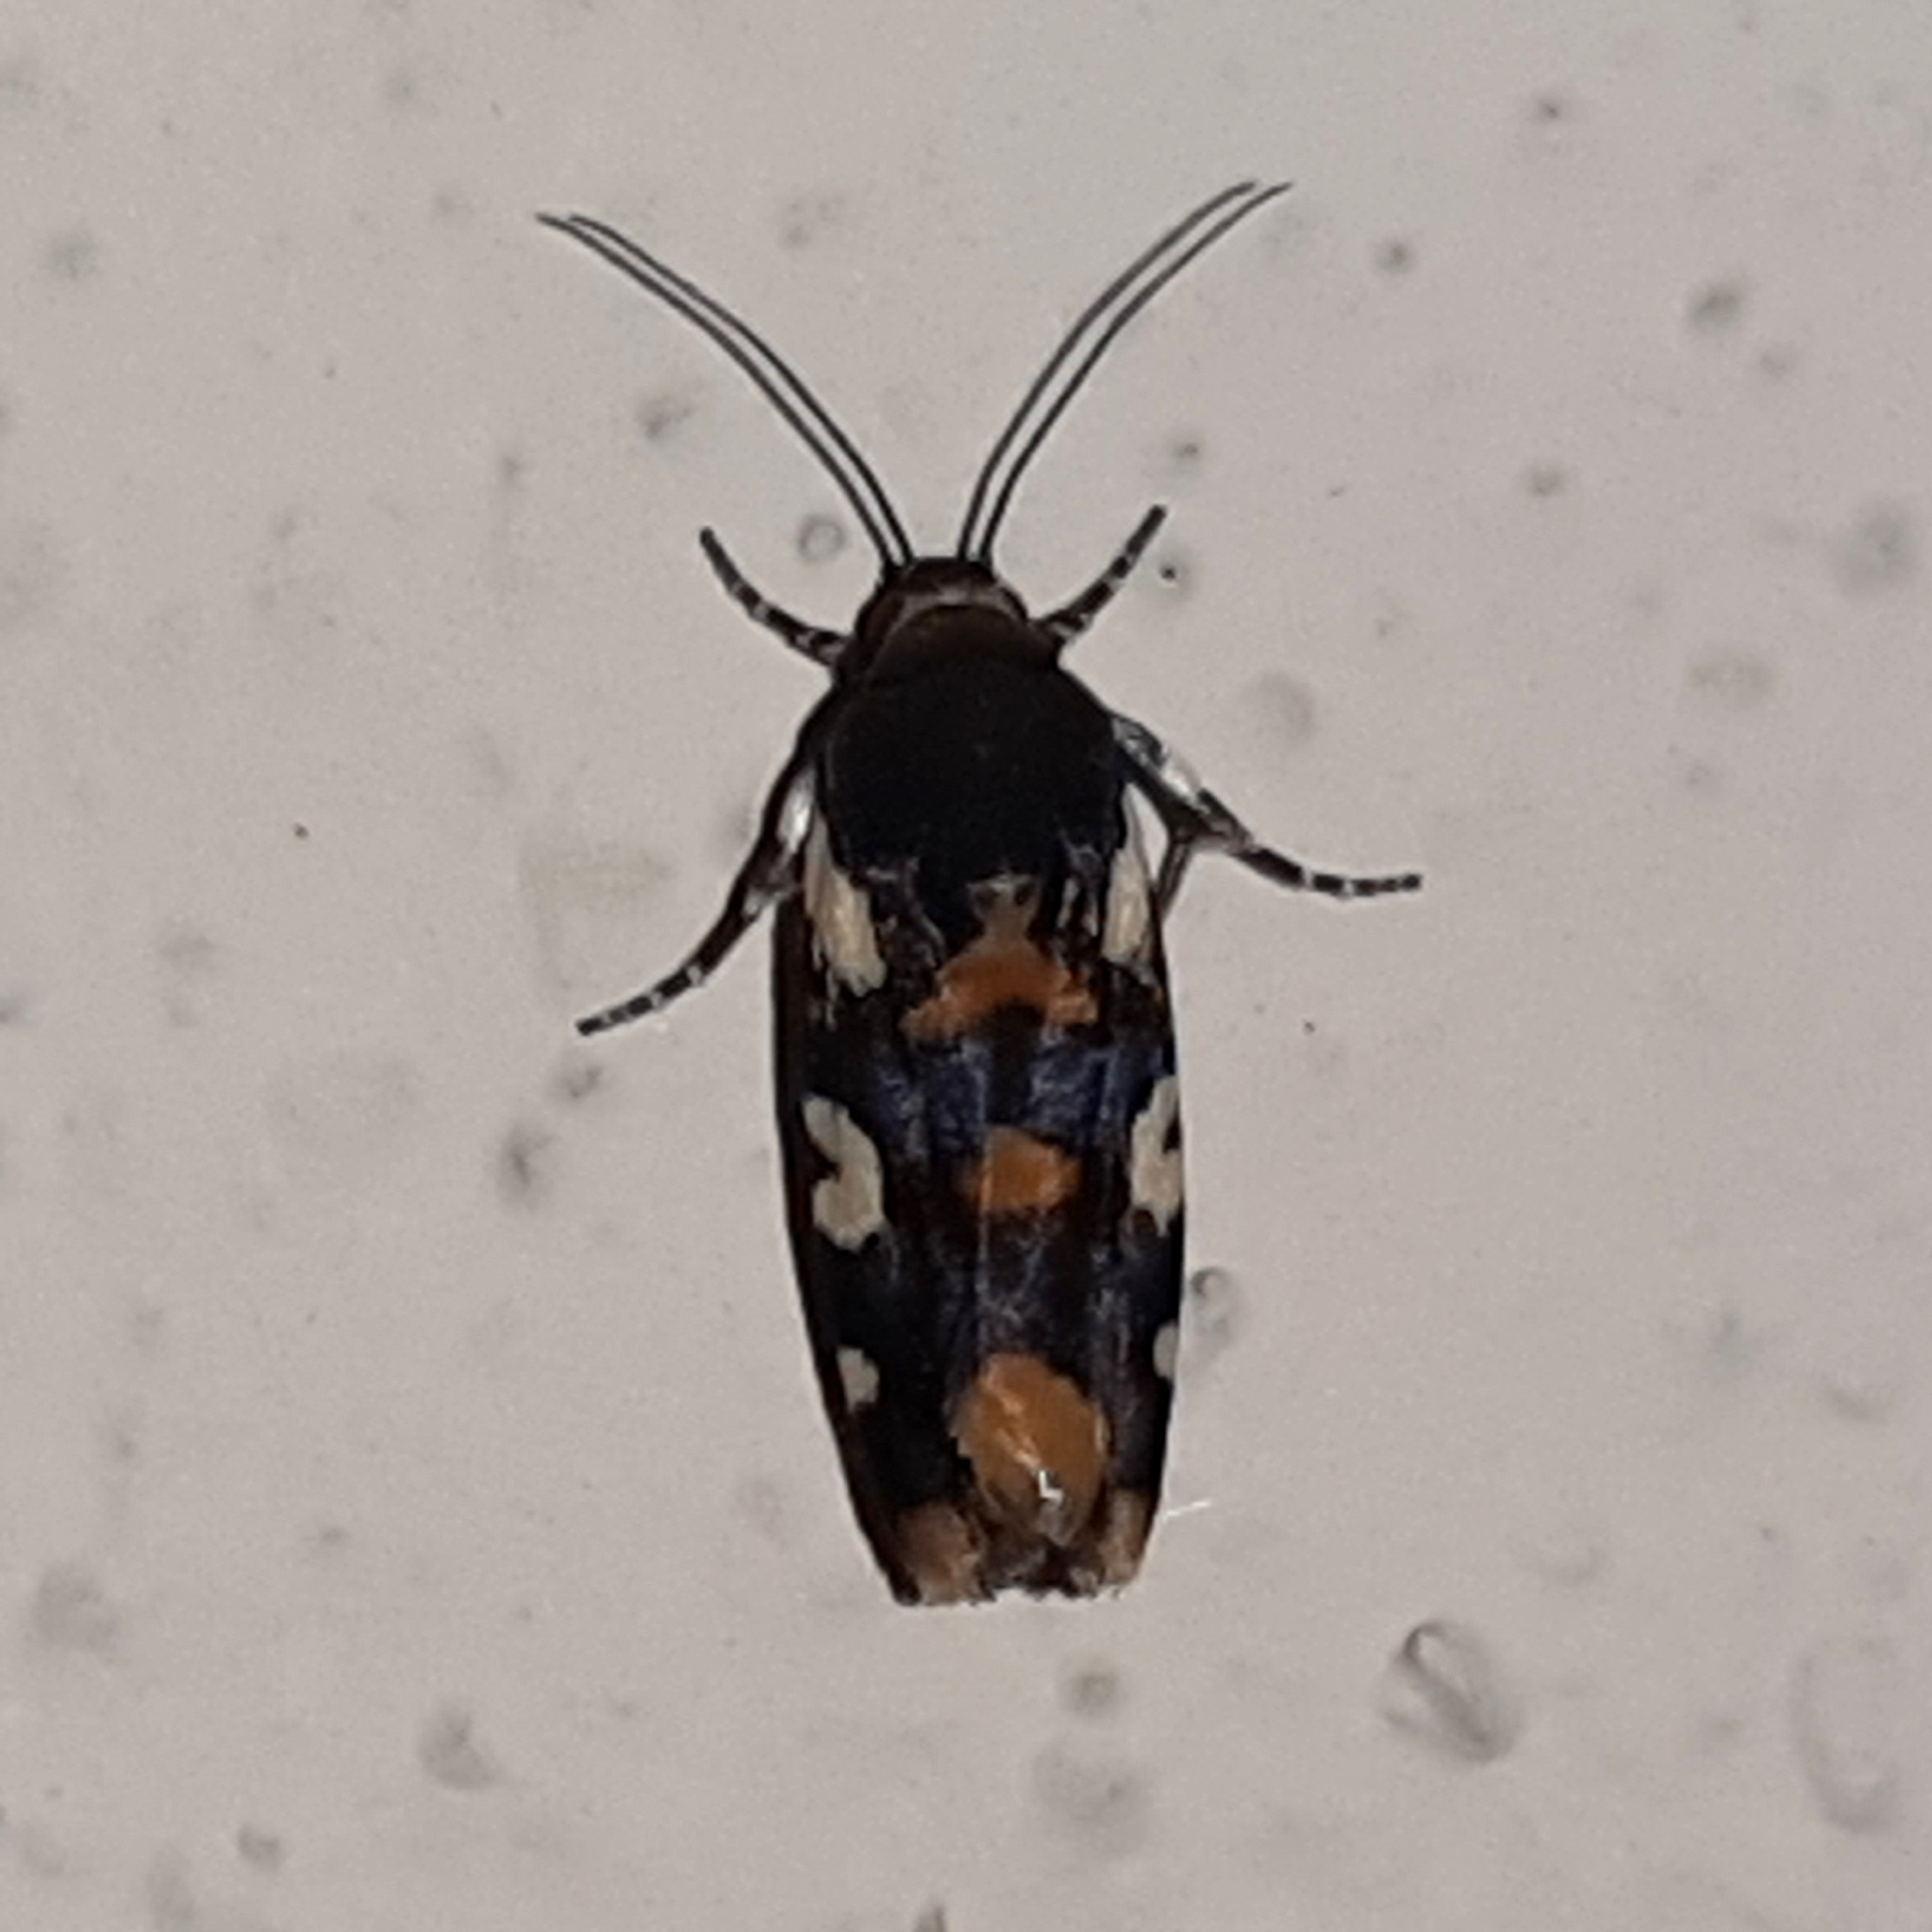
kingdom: Animalia
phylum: Arthropoda
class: Insecta
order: Lepidoptera
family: Noctuidae
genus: Acontia
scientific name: Acontia dama
